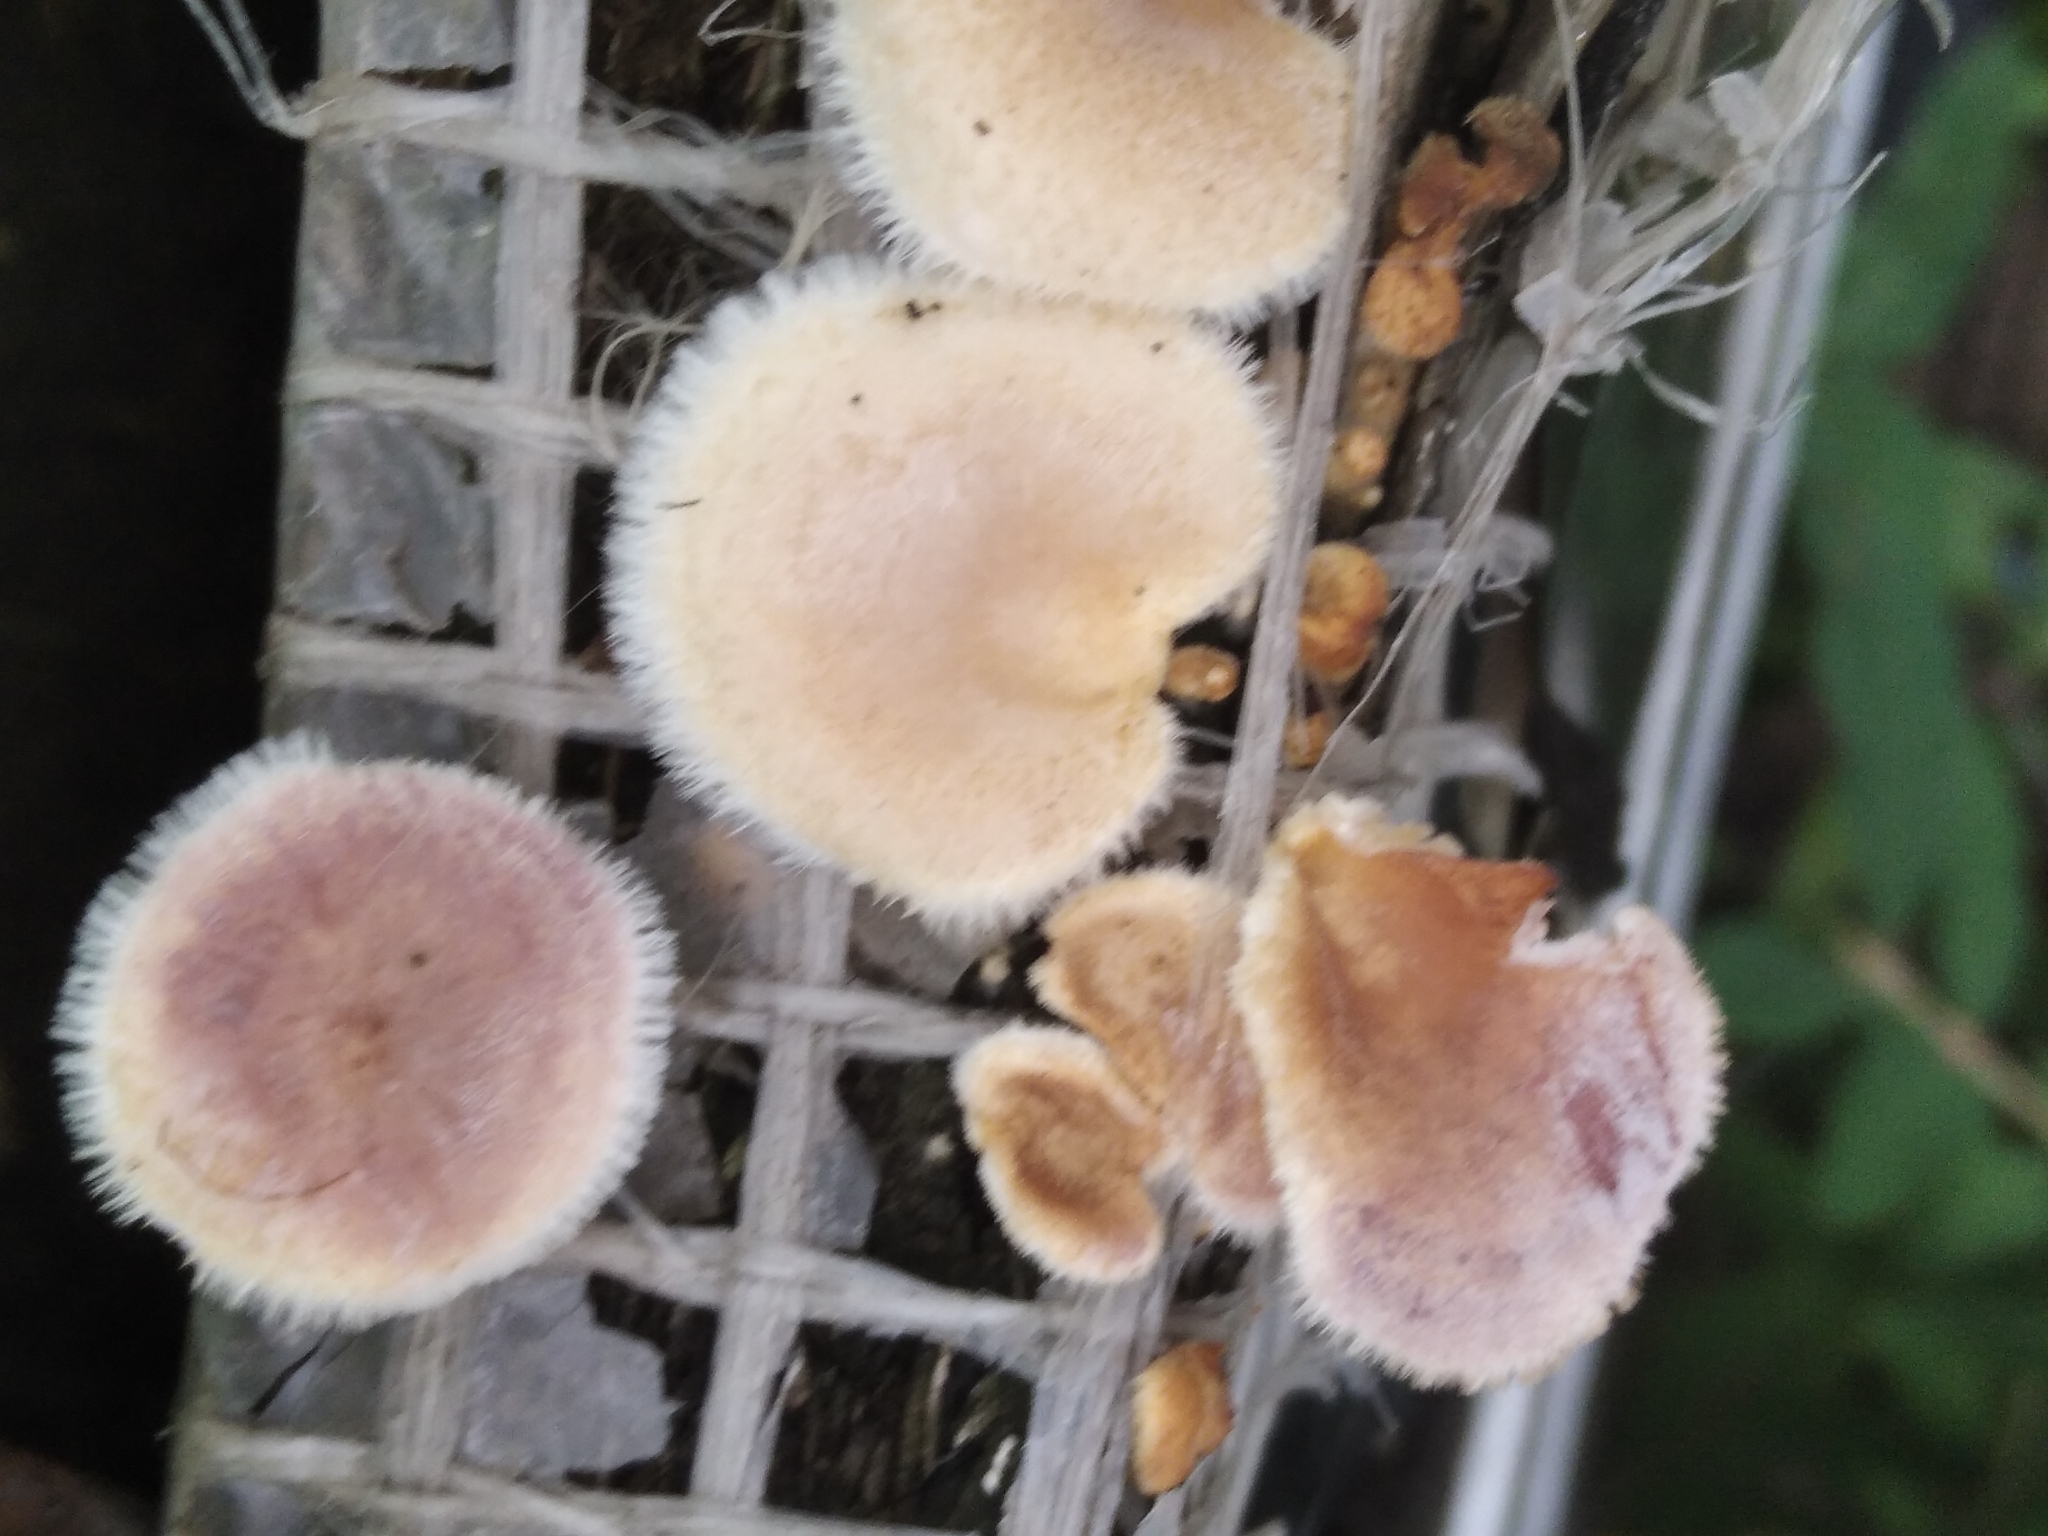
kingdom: Fungi
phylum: Basidiomycota
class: Agaricomycetes
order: Polyporales
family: Panaceae
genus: Panus
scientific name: Panus neostrigosus
